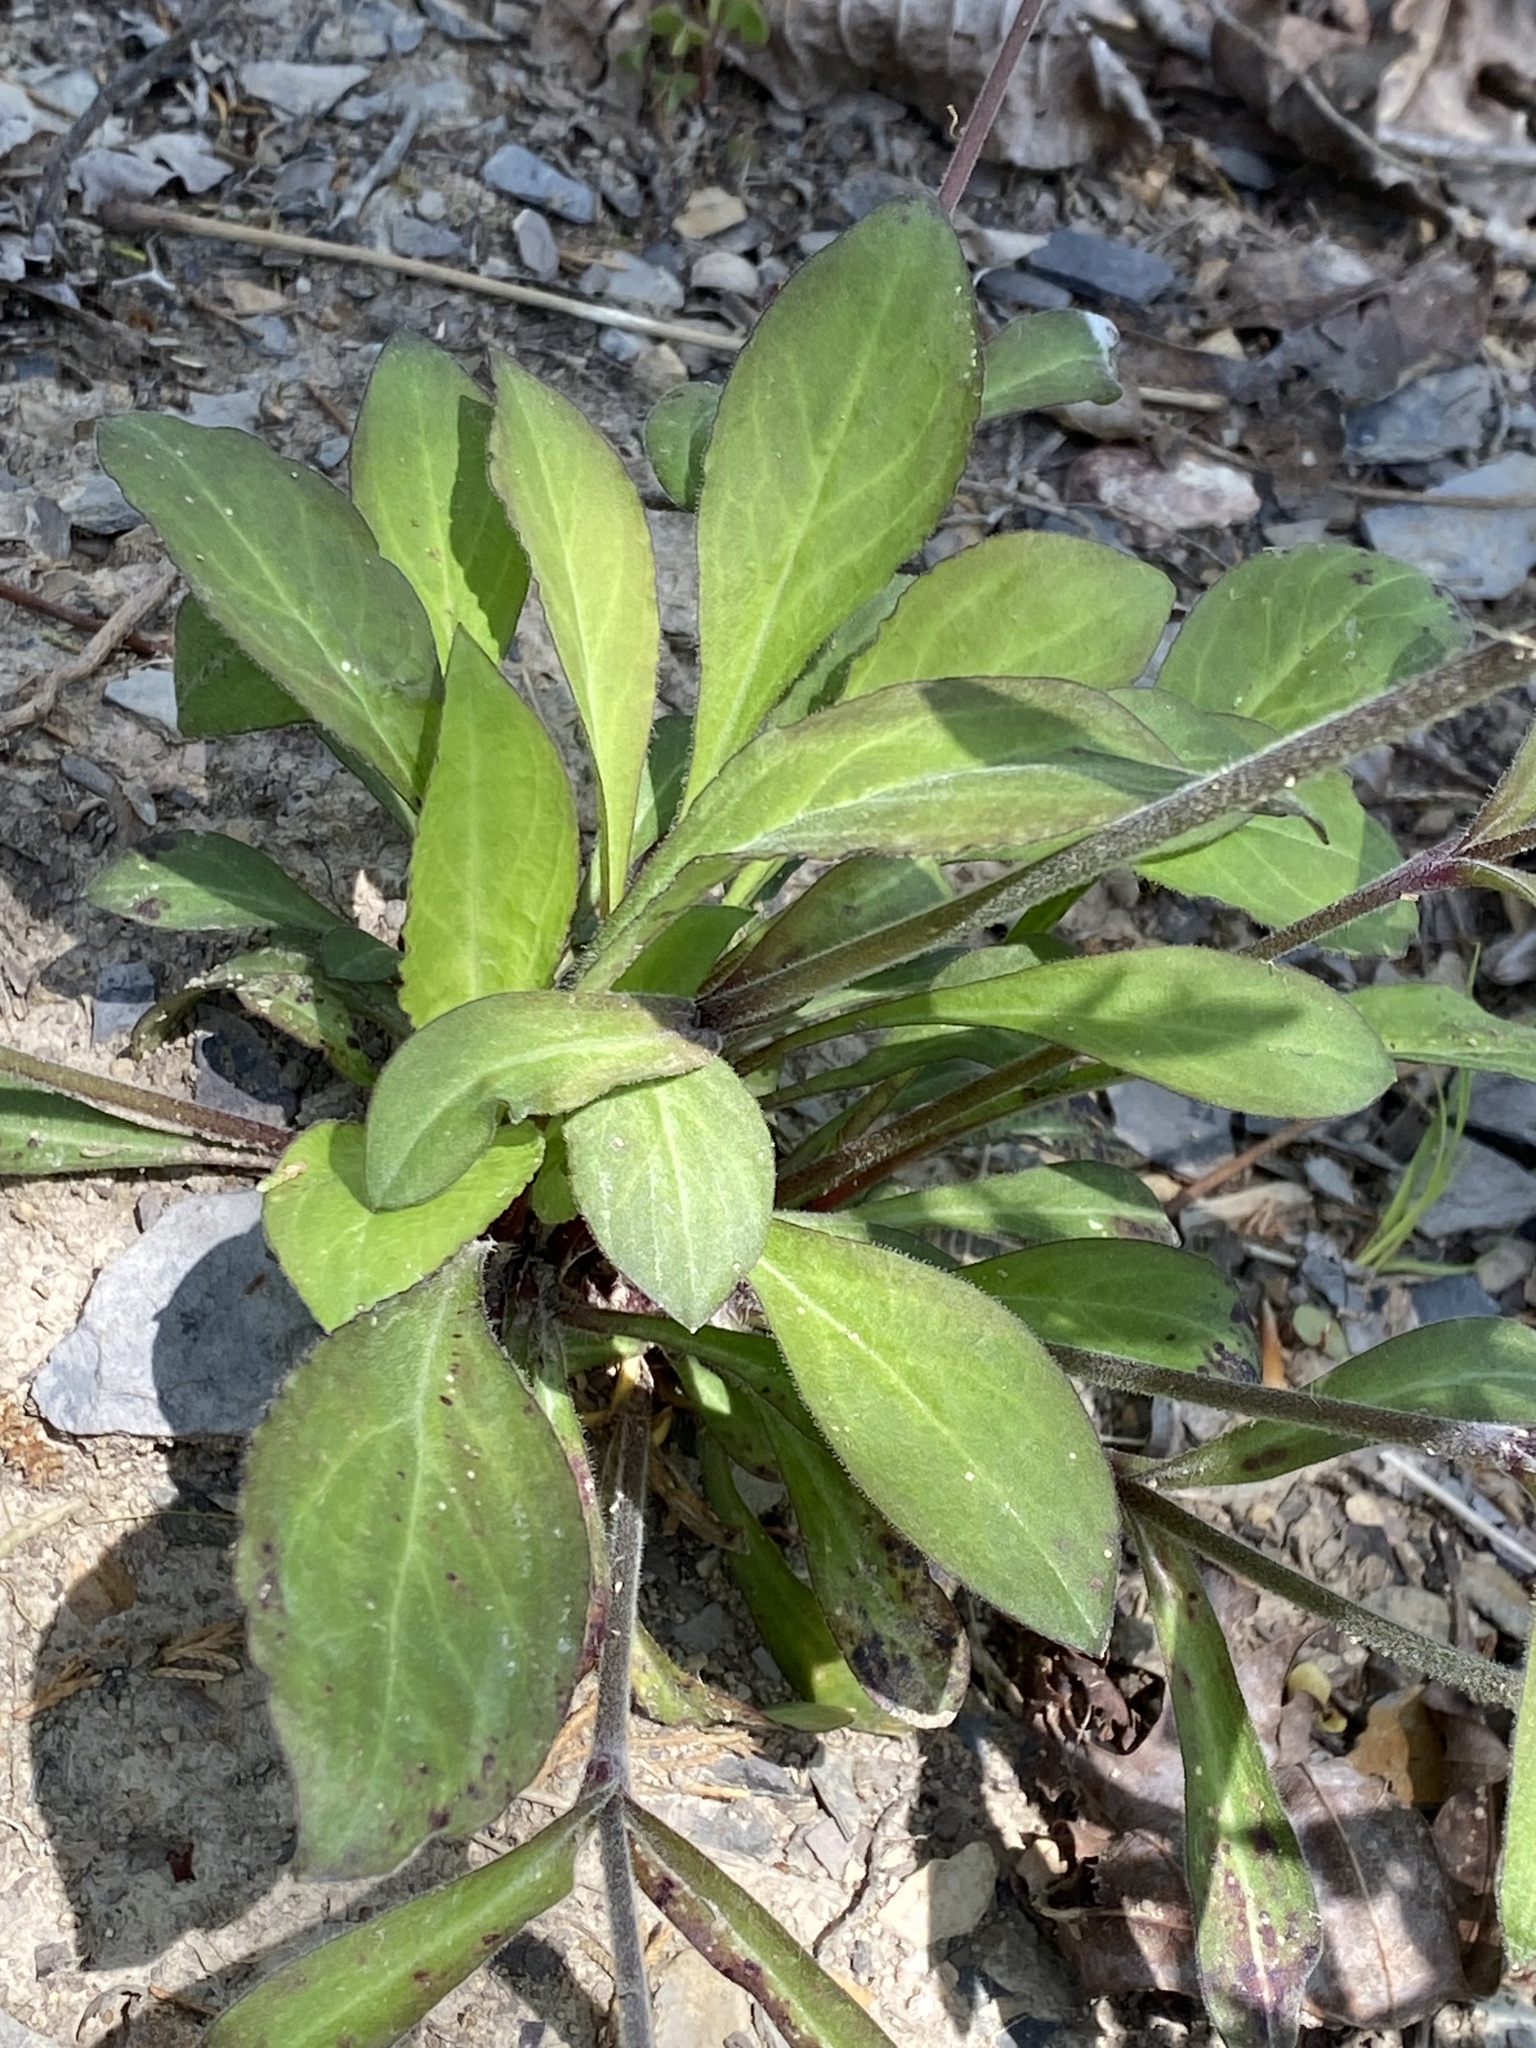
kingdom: Plantae
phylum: Tracheophyta
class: Magnoliopsida
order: Caryophyllales
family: Caryophyllaceae
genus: Silene
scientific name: Silene virginica
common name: Fire-pink
